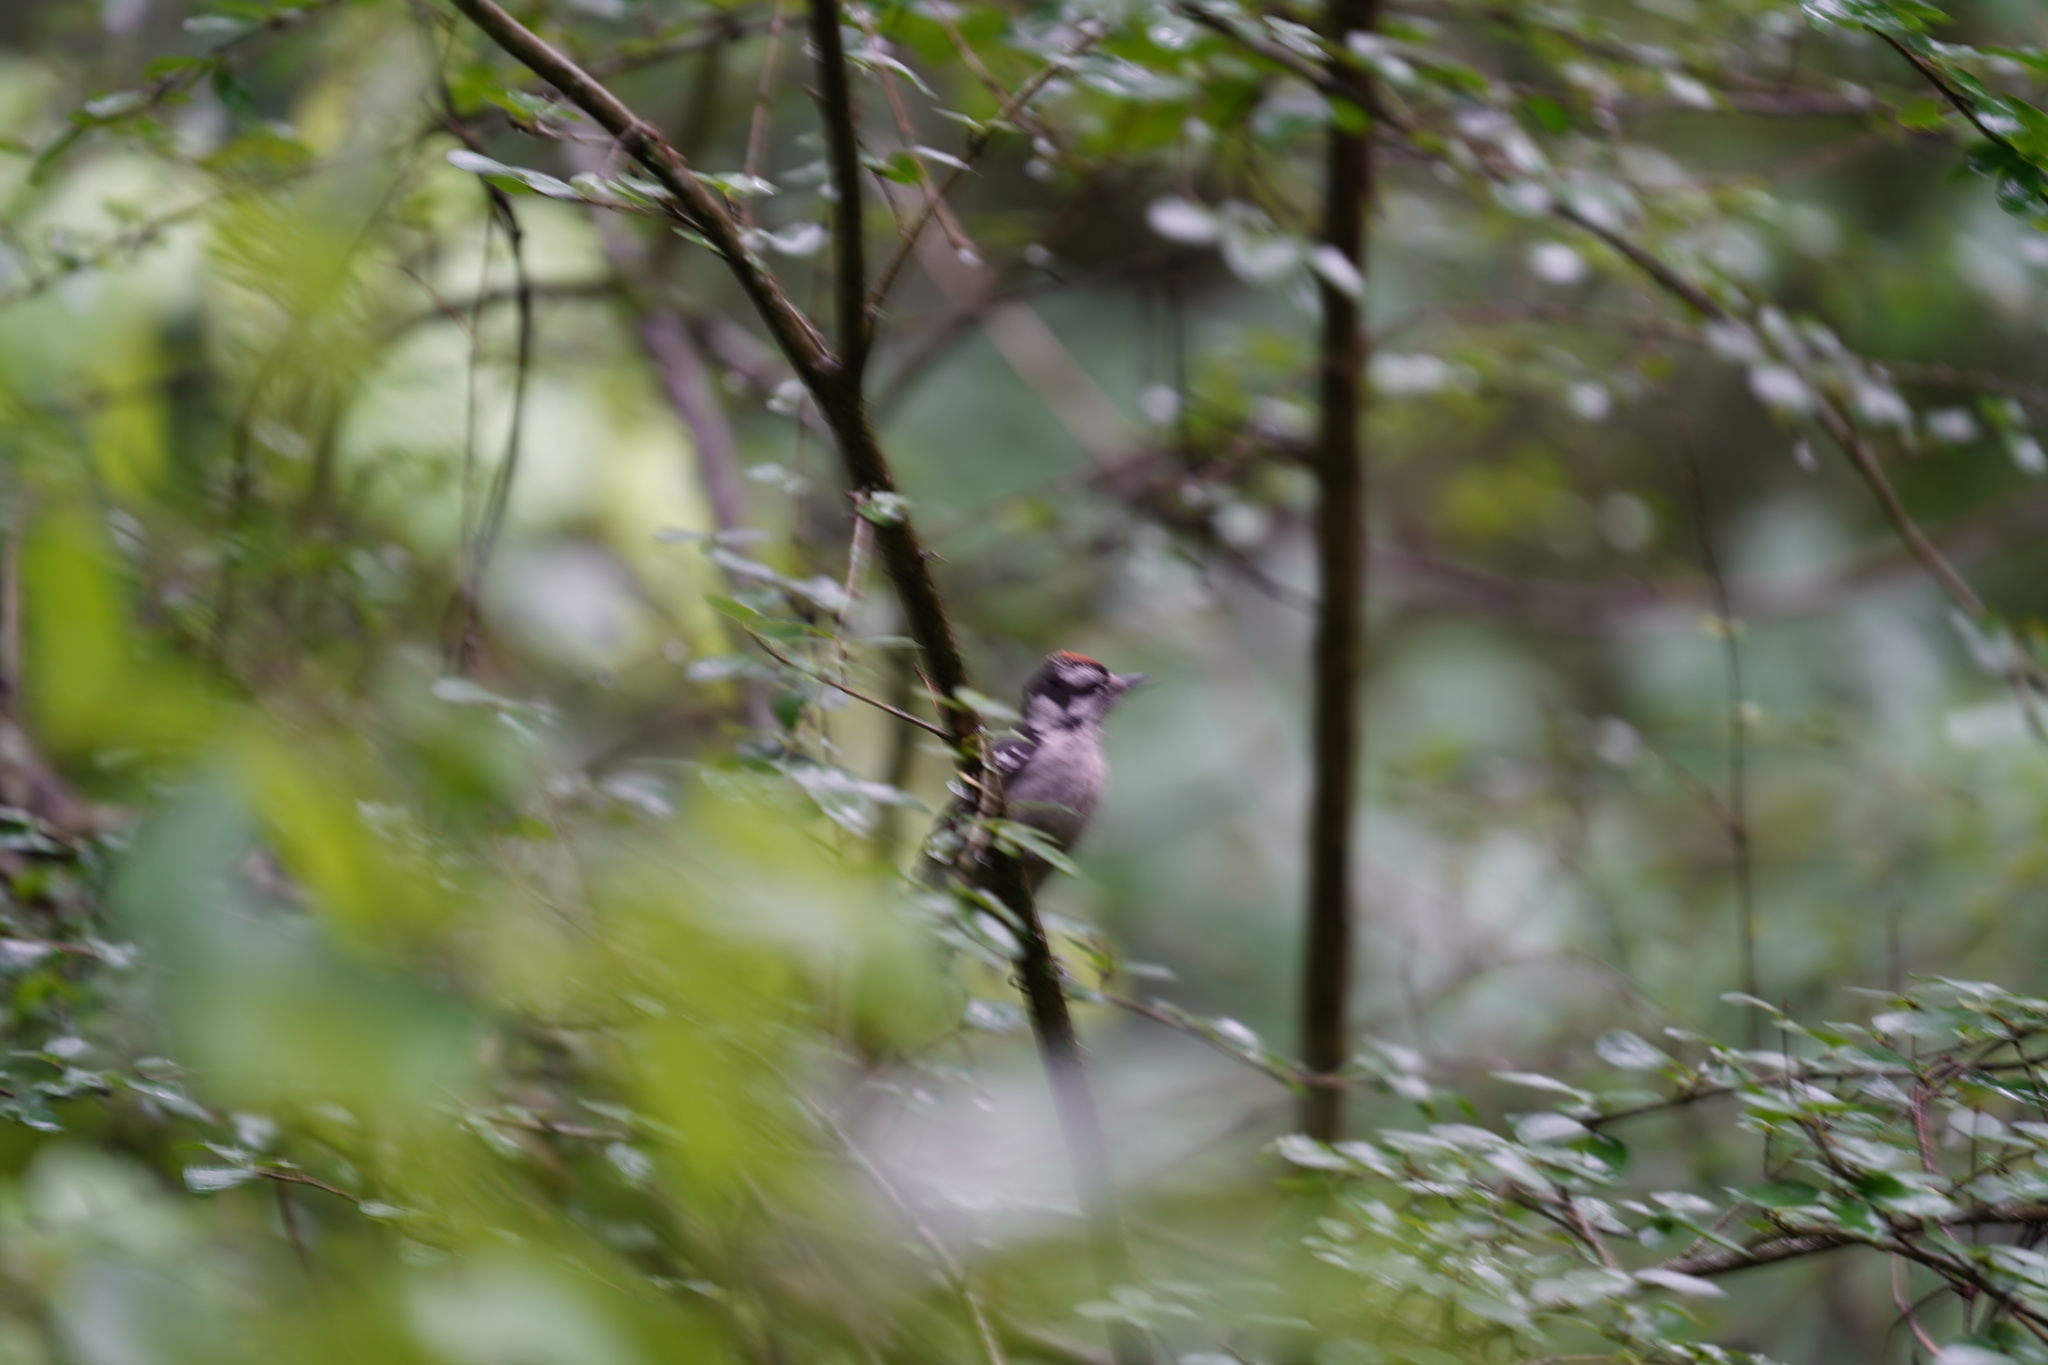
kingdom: Animalia
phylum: Chordata
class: Aves
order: Piciformes
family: Picidae
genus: Dryobates
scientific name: Dryobates pubescens
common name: Downy woodpecker
